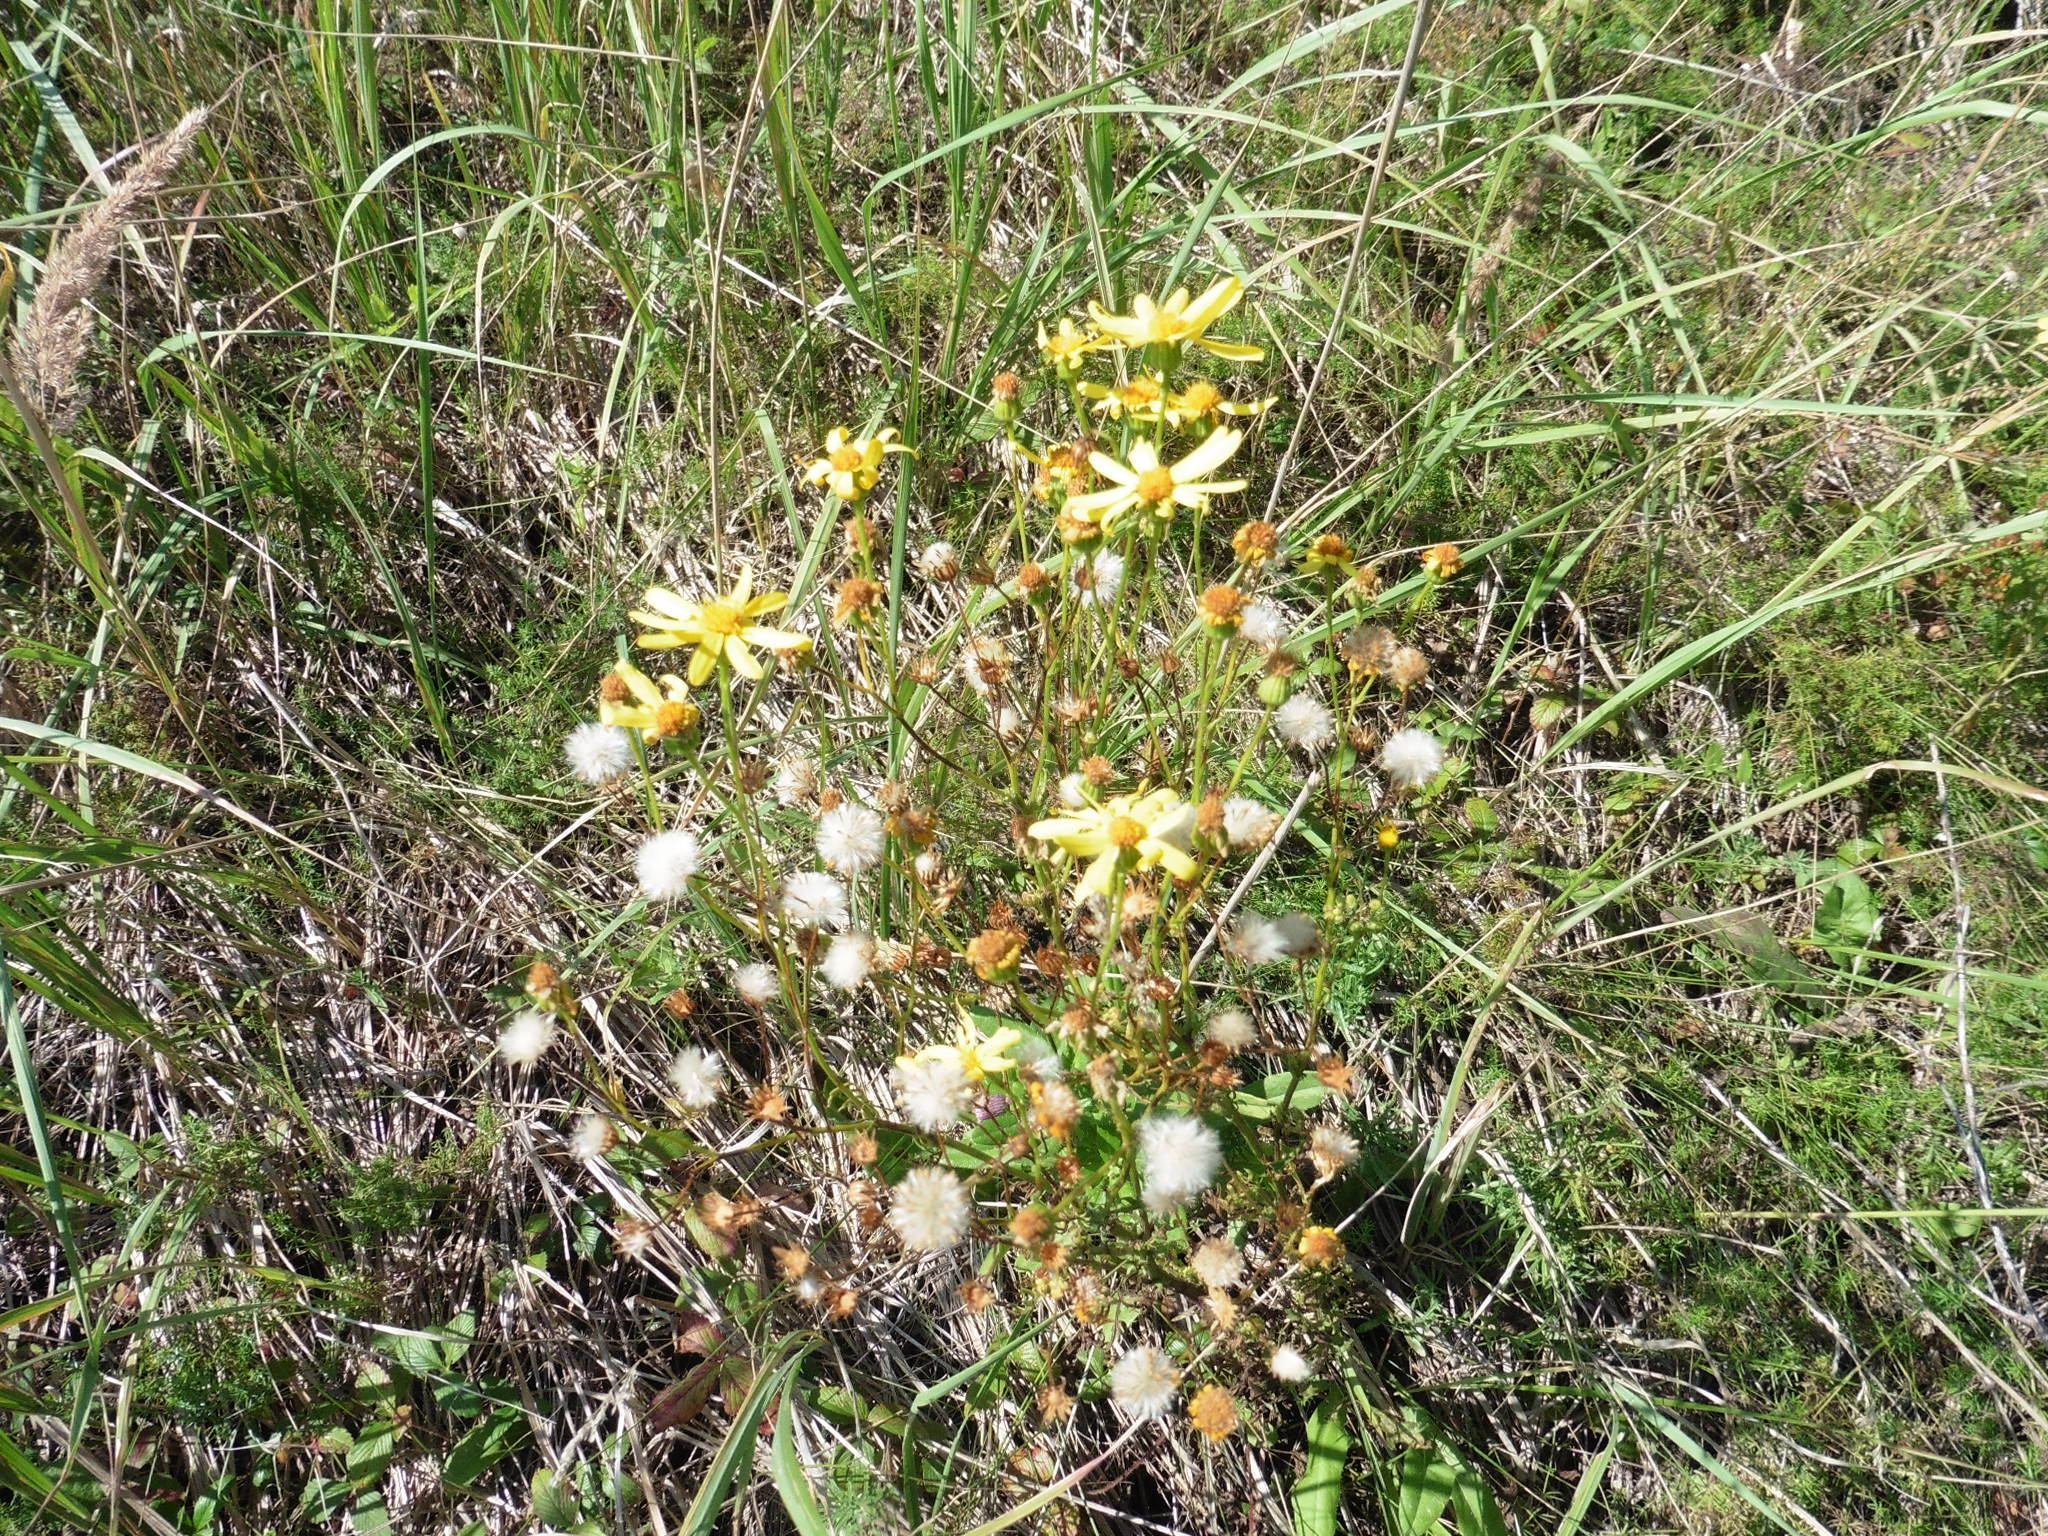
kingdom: Plantae
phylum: Tracheophyta
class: Magnoliopsida
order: Asterales
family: Asteraceae
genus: Jacobaea
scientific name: Jacobaea vulgaris
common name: Stinking willie
